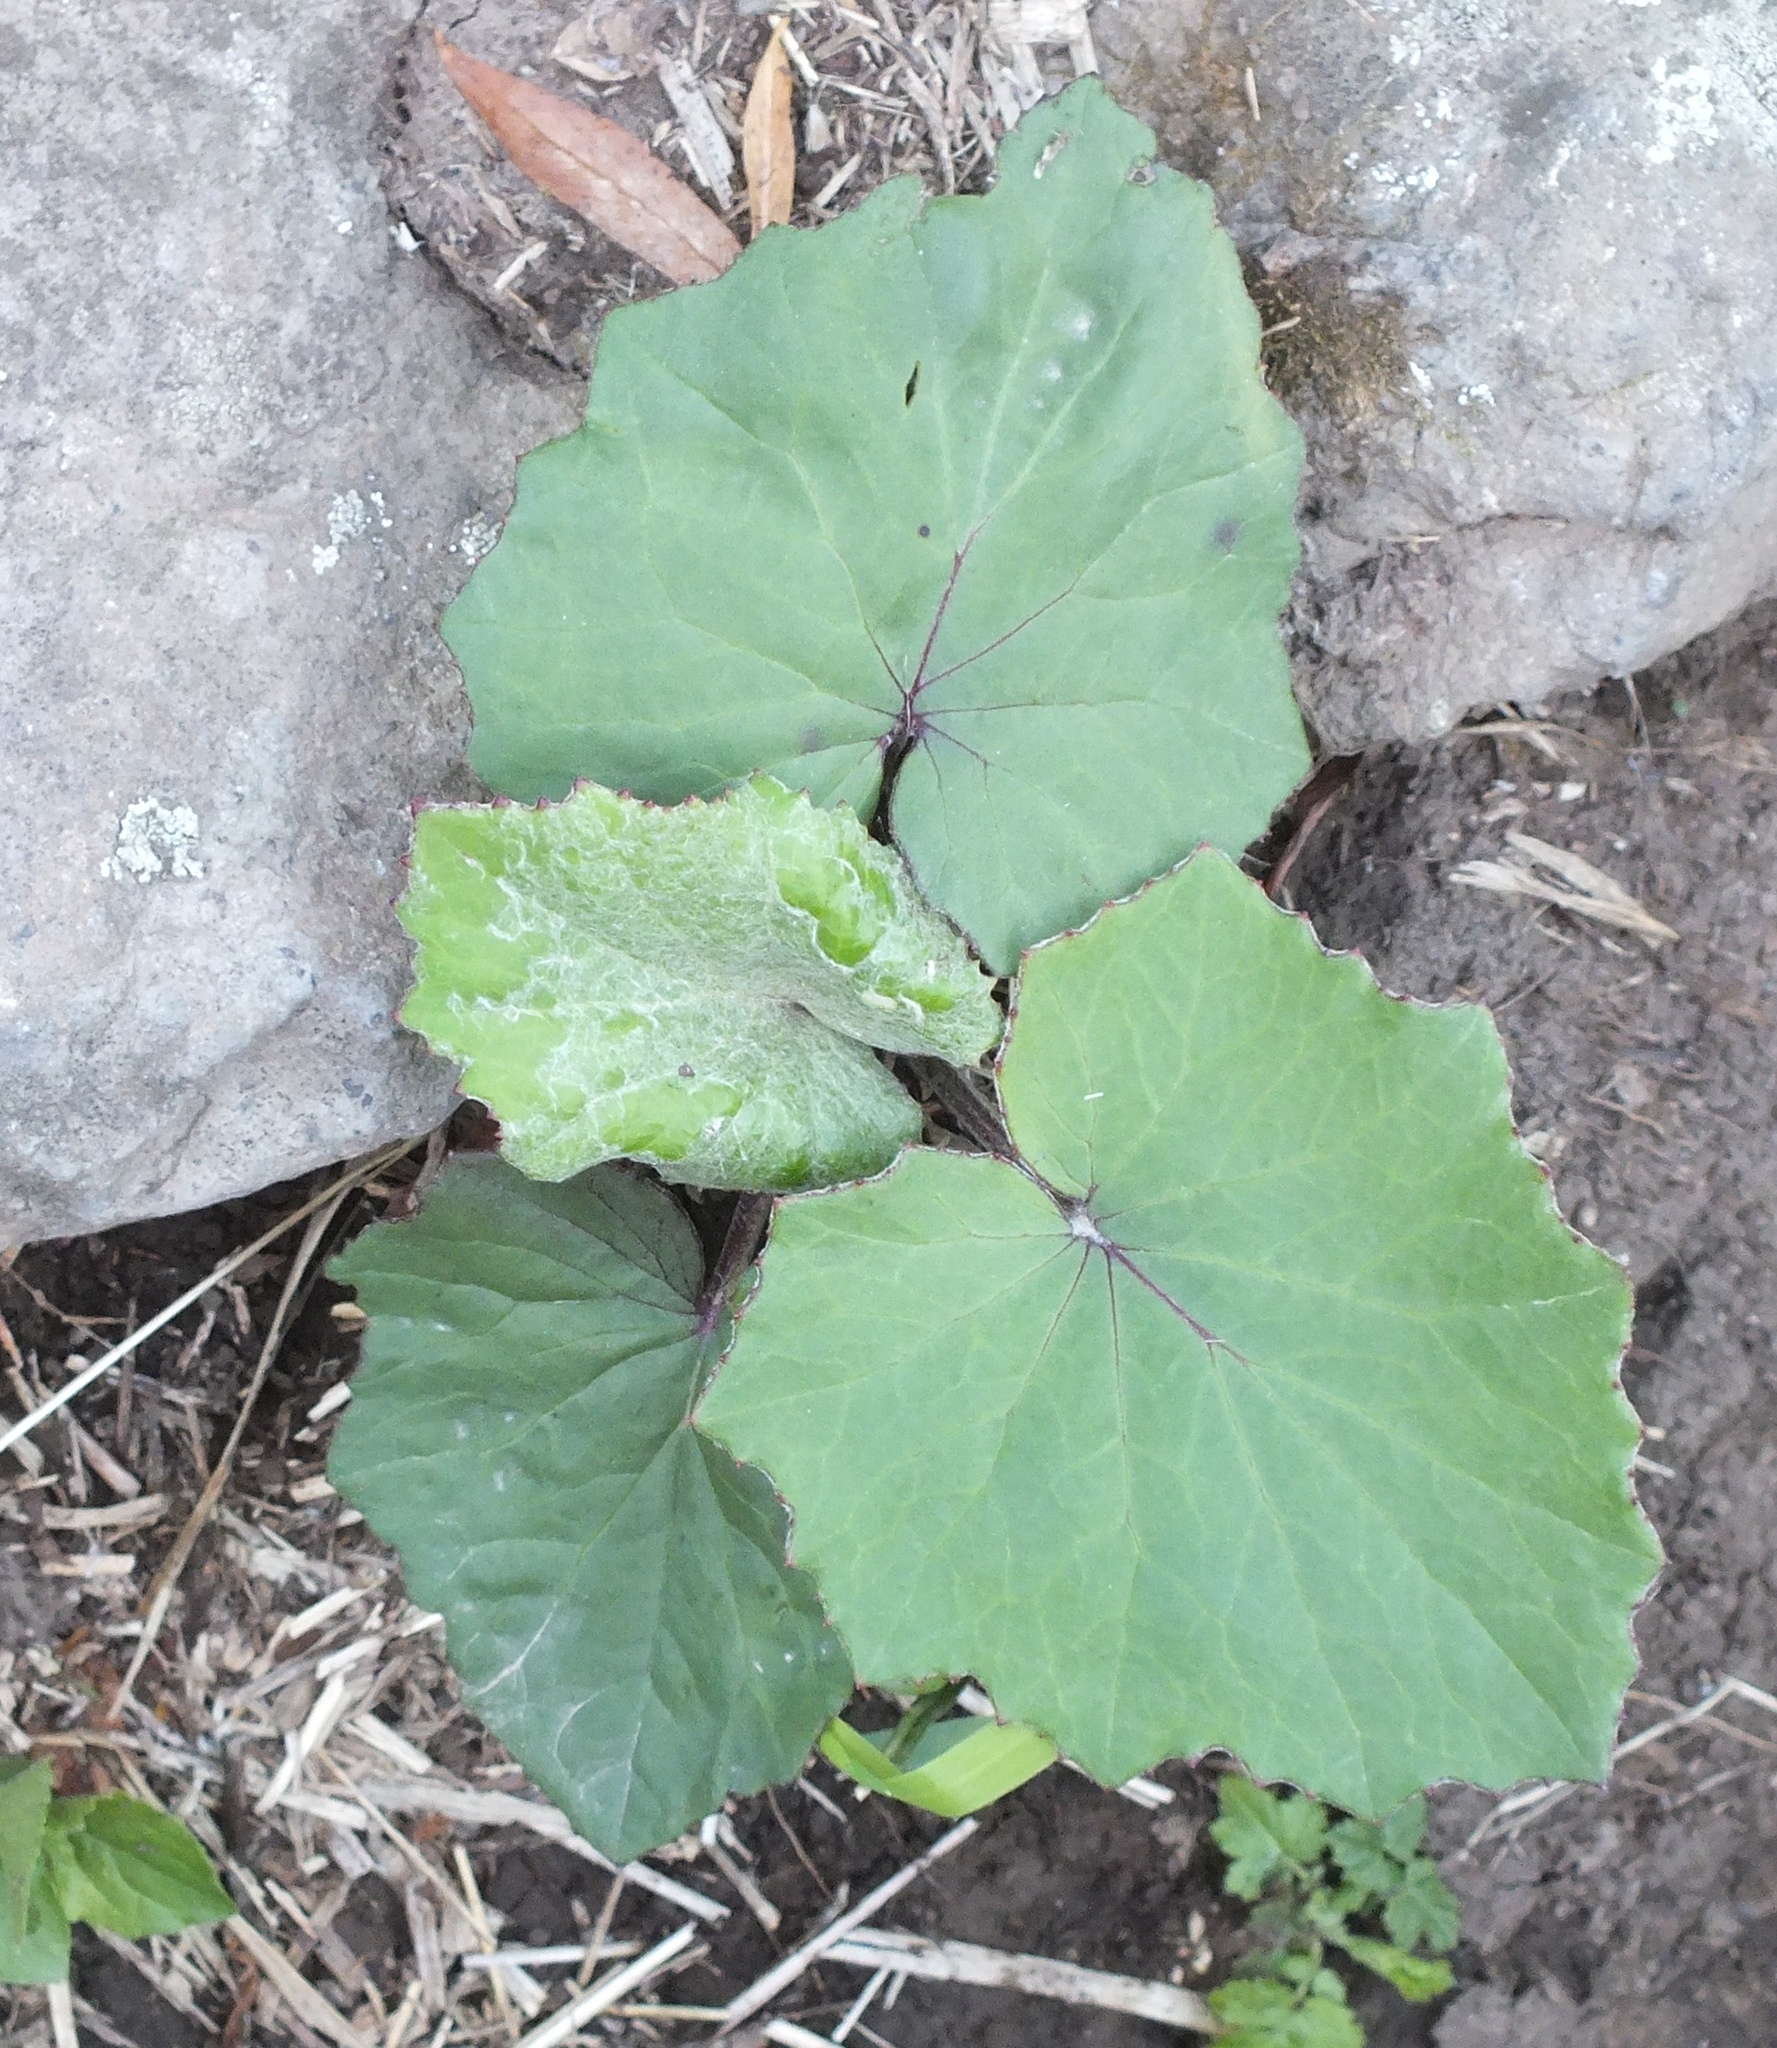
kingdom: Plantae
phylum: Tracheophyta
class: Magnoliopsida
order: Asterales
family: Asteraceae
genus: Tussilago
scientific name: Tussilago farfara
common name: Coltsfoot
